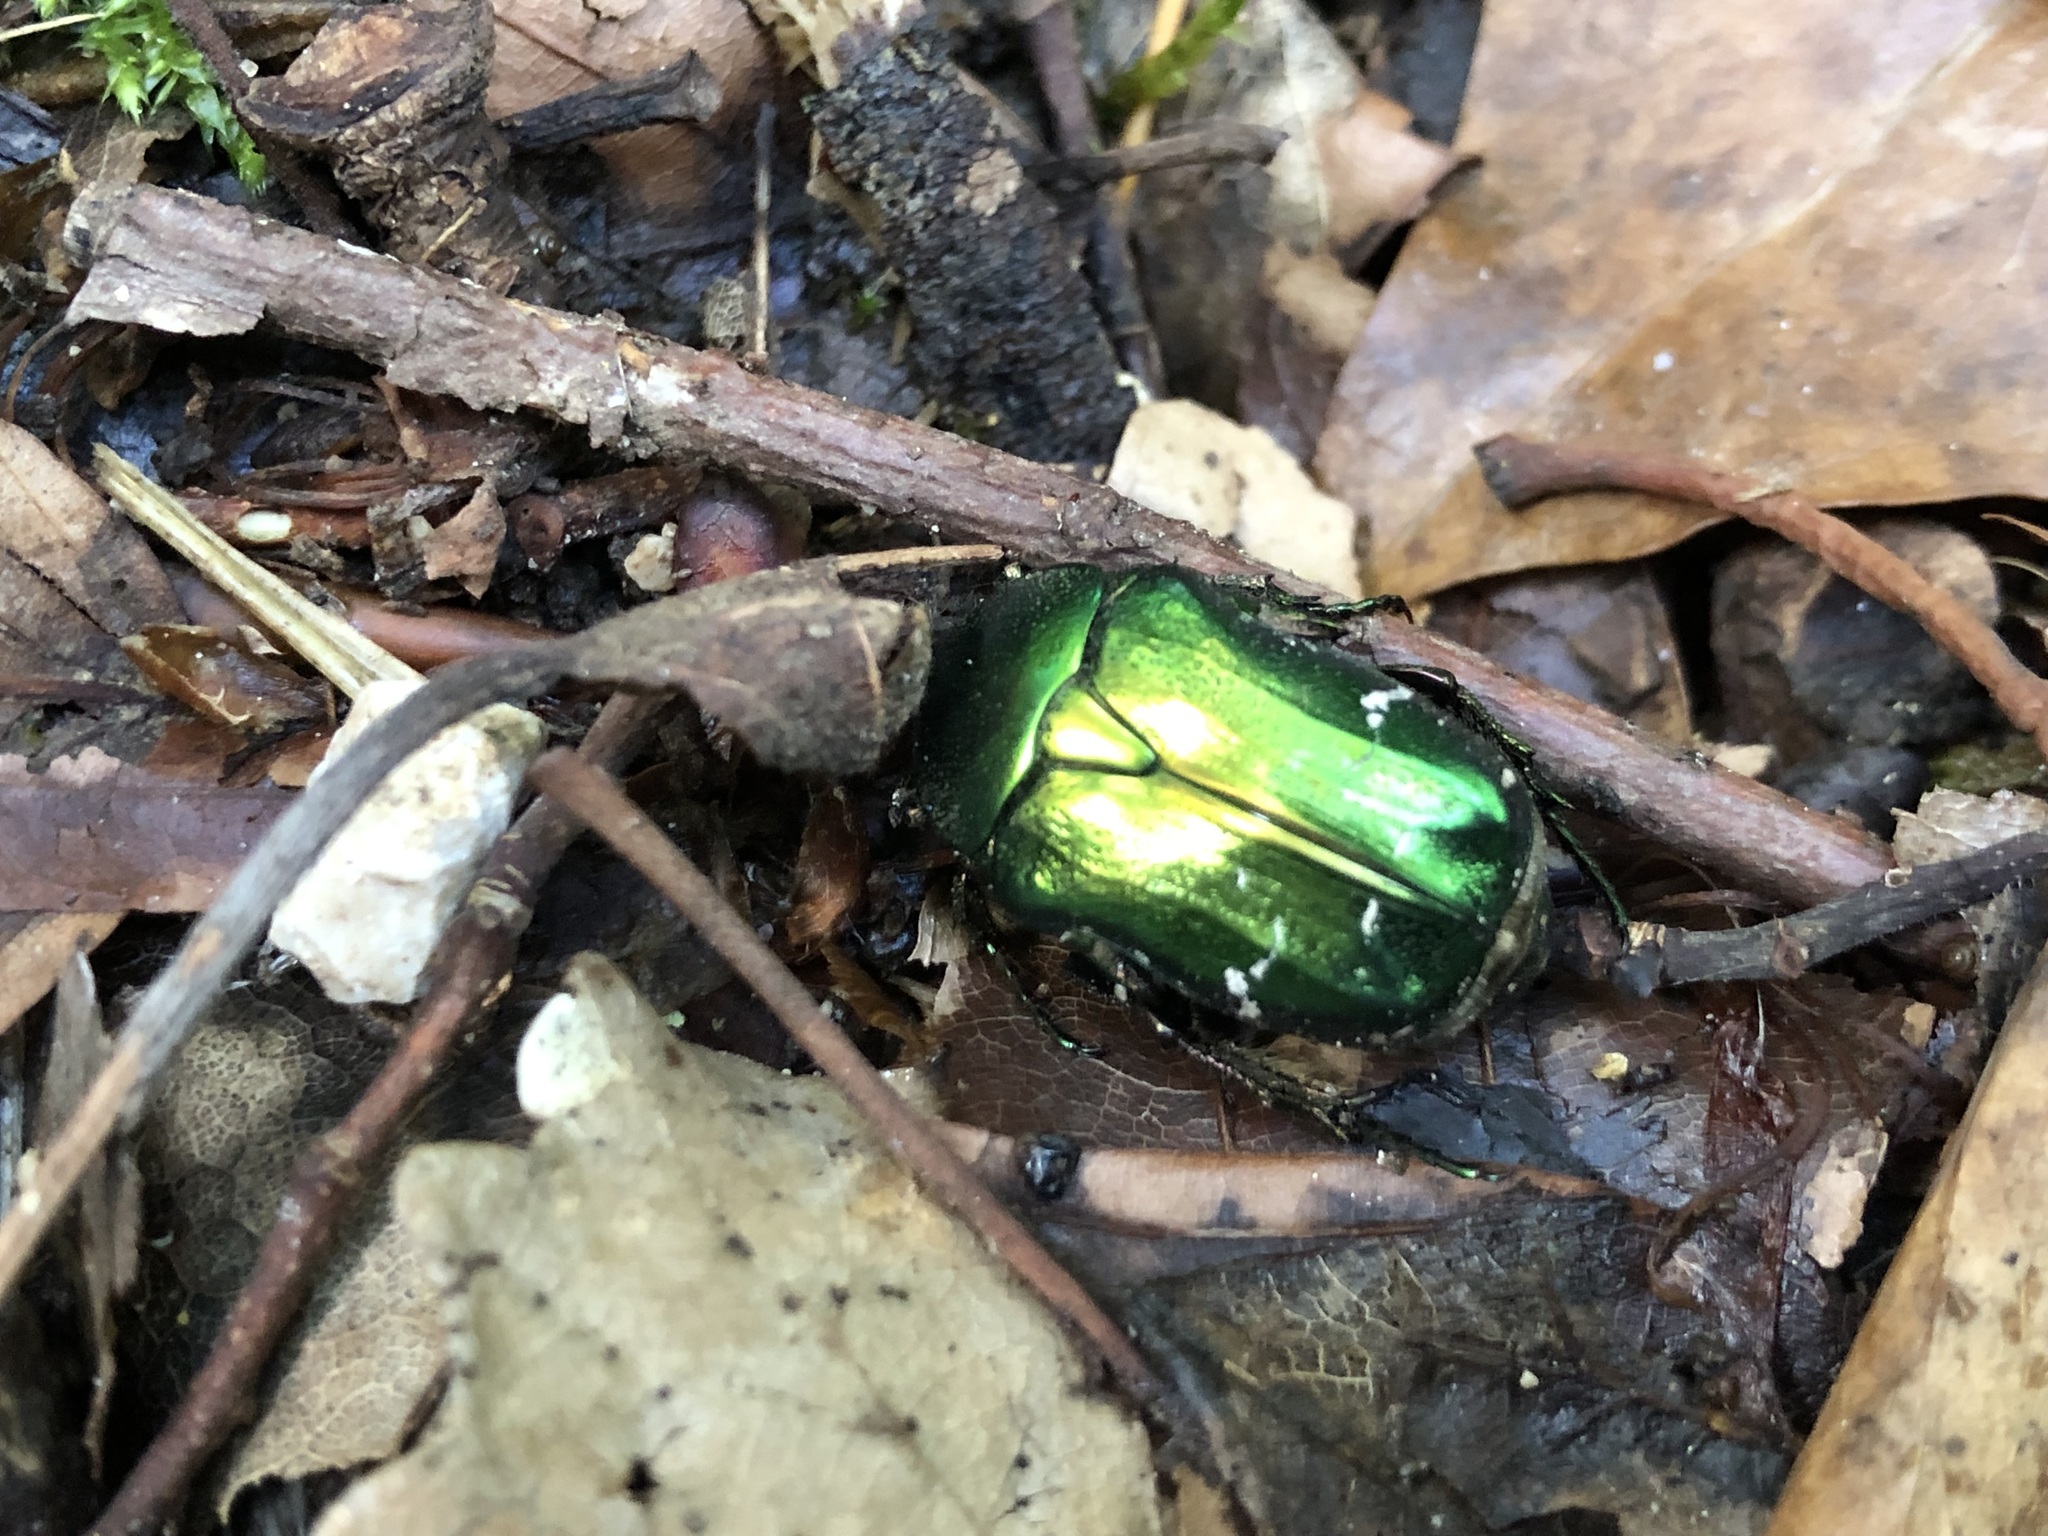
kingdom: Animalia
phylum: Arthropoda
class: Insecta
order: Coleoptera
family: Scarabaeidae
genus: Cetonia
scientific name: Cetonia aurata
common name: Rose chafer
